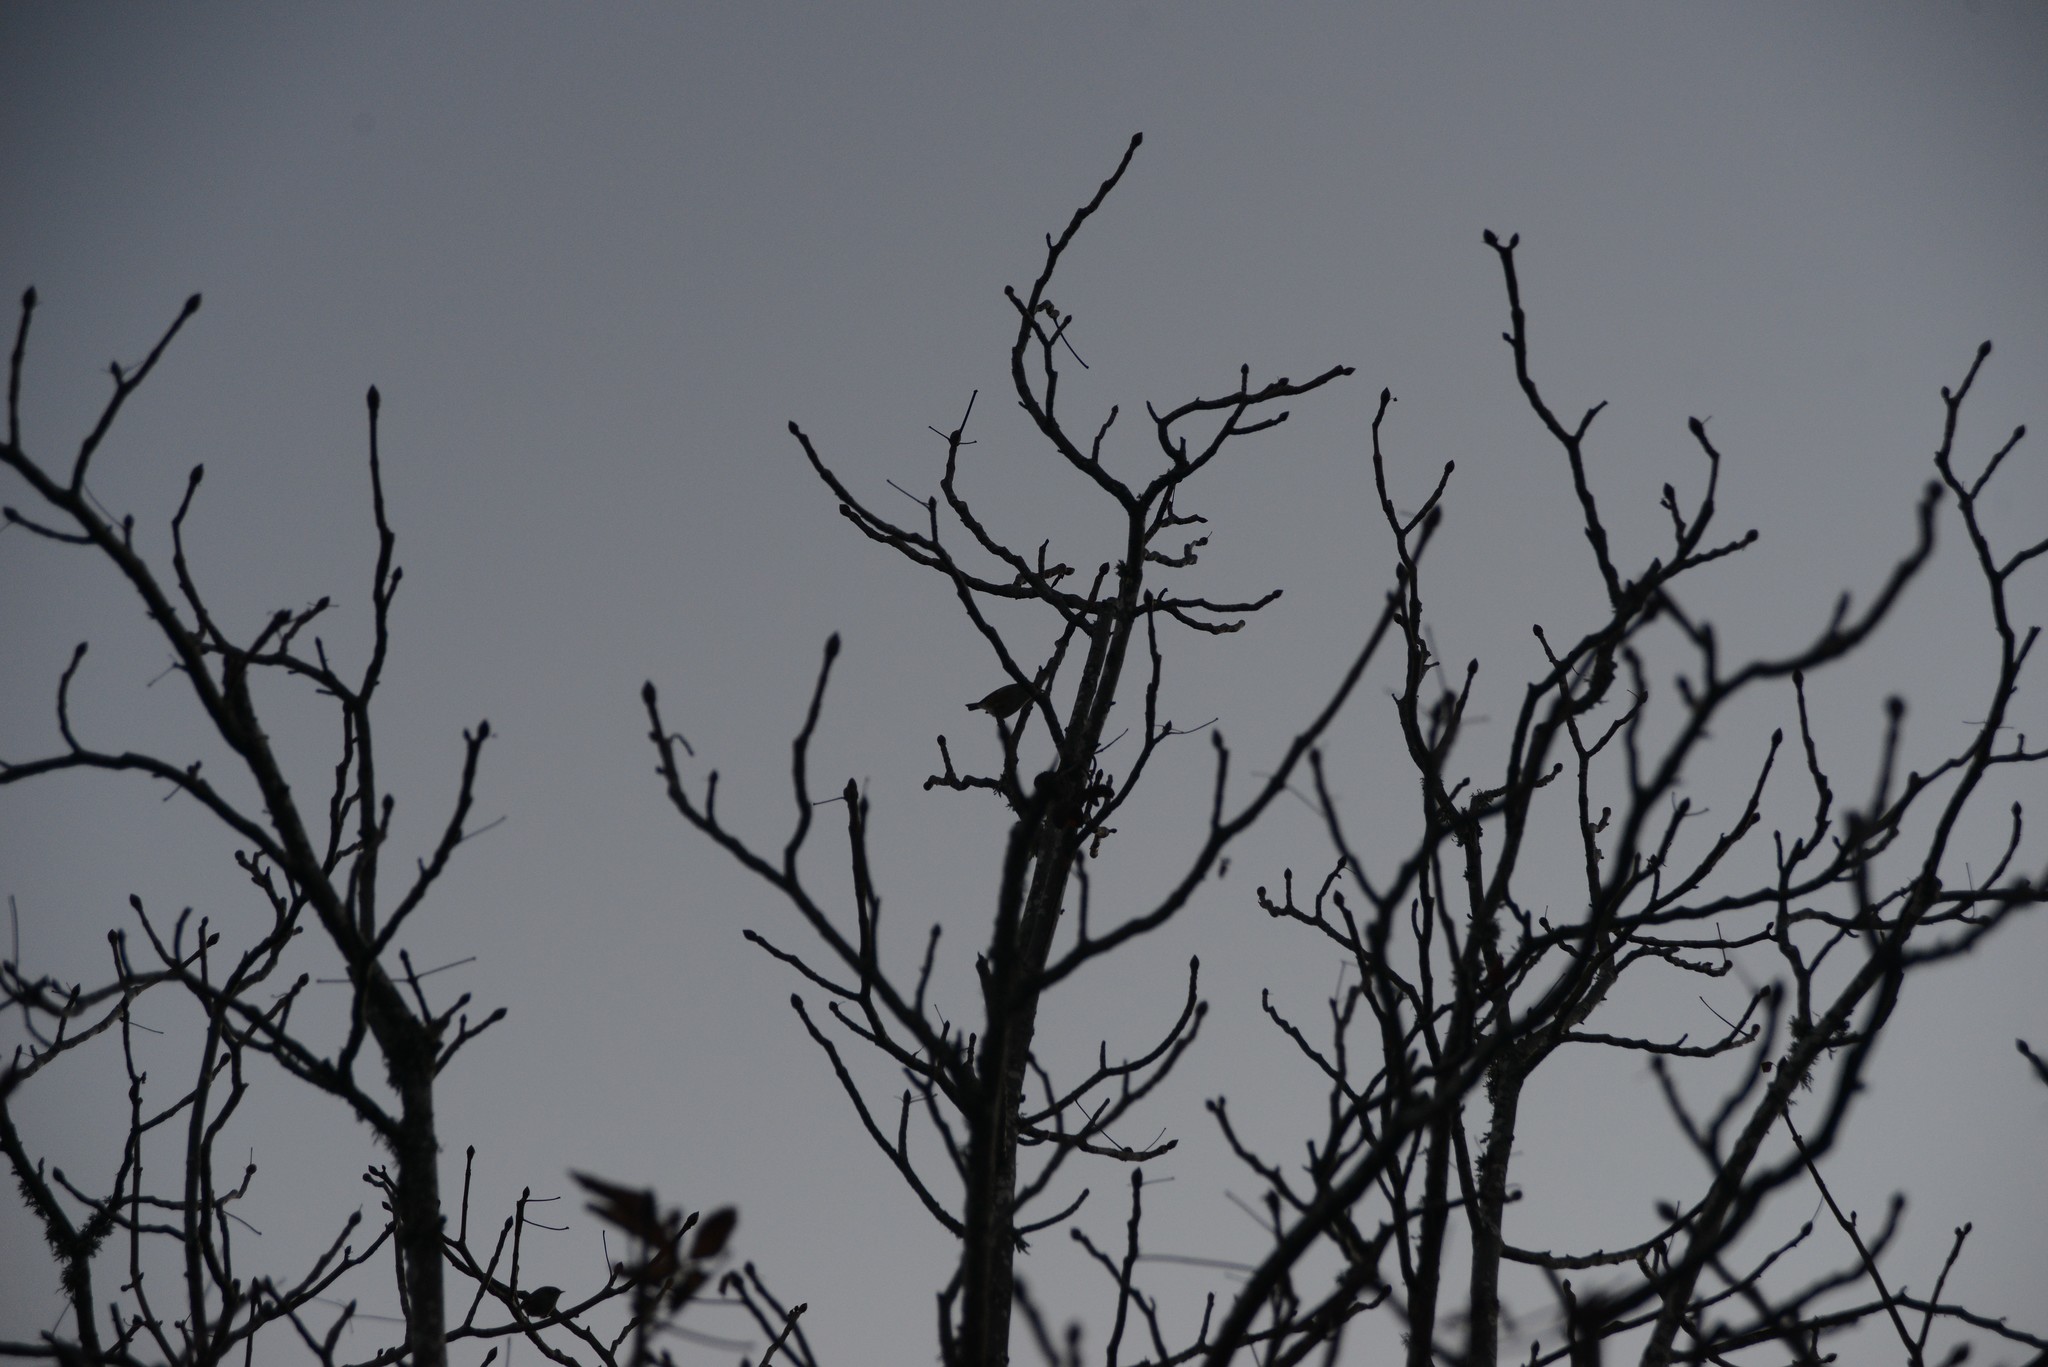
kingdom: Animalia
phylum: Chordata
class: Aves
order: Passeriformes
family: Zosteropidae
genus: Zosterops
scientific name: Zosterops lateralis
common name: Silvereye
